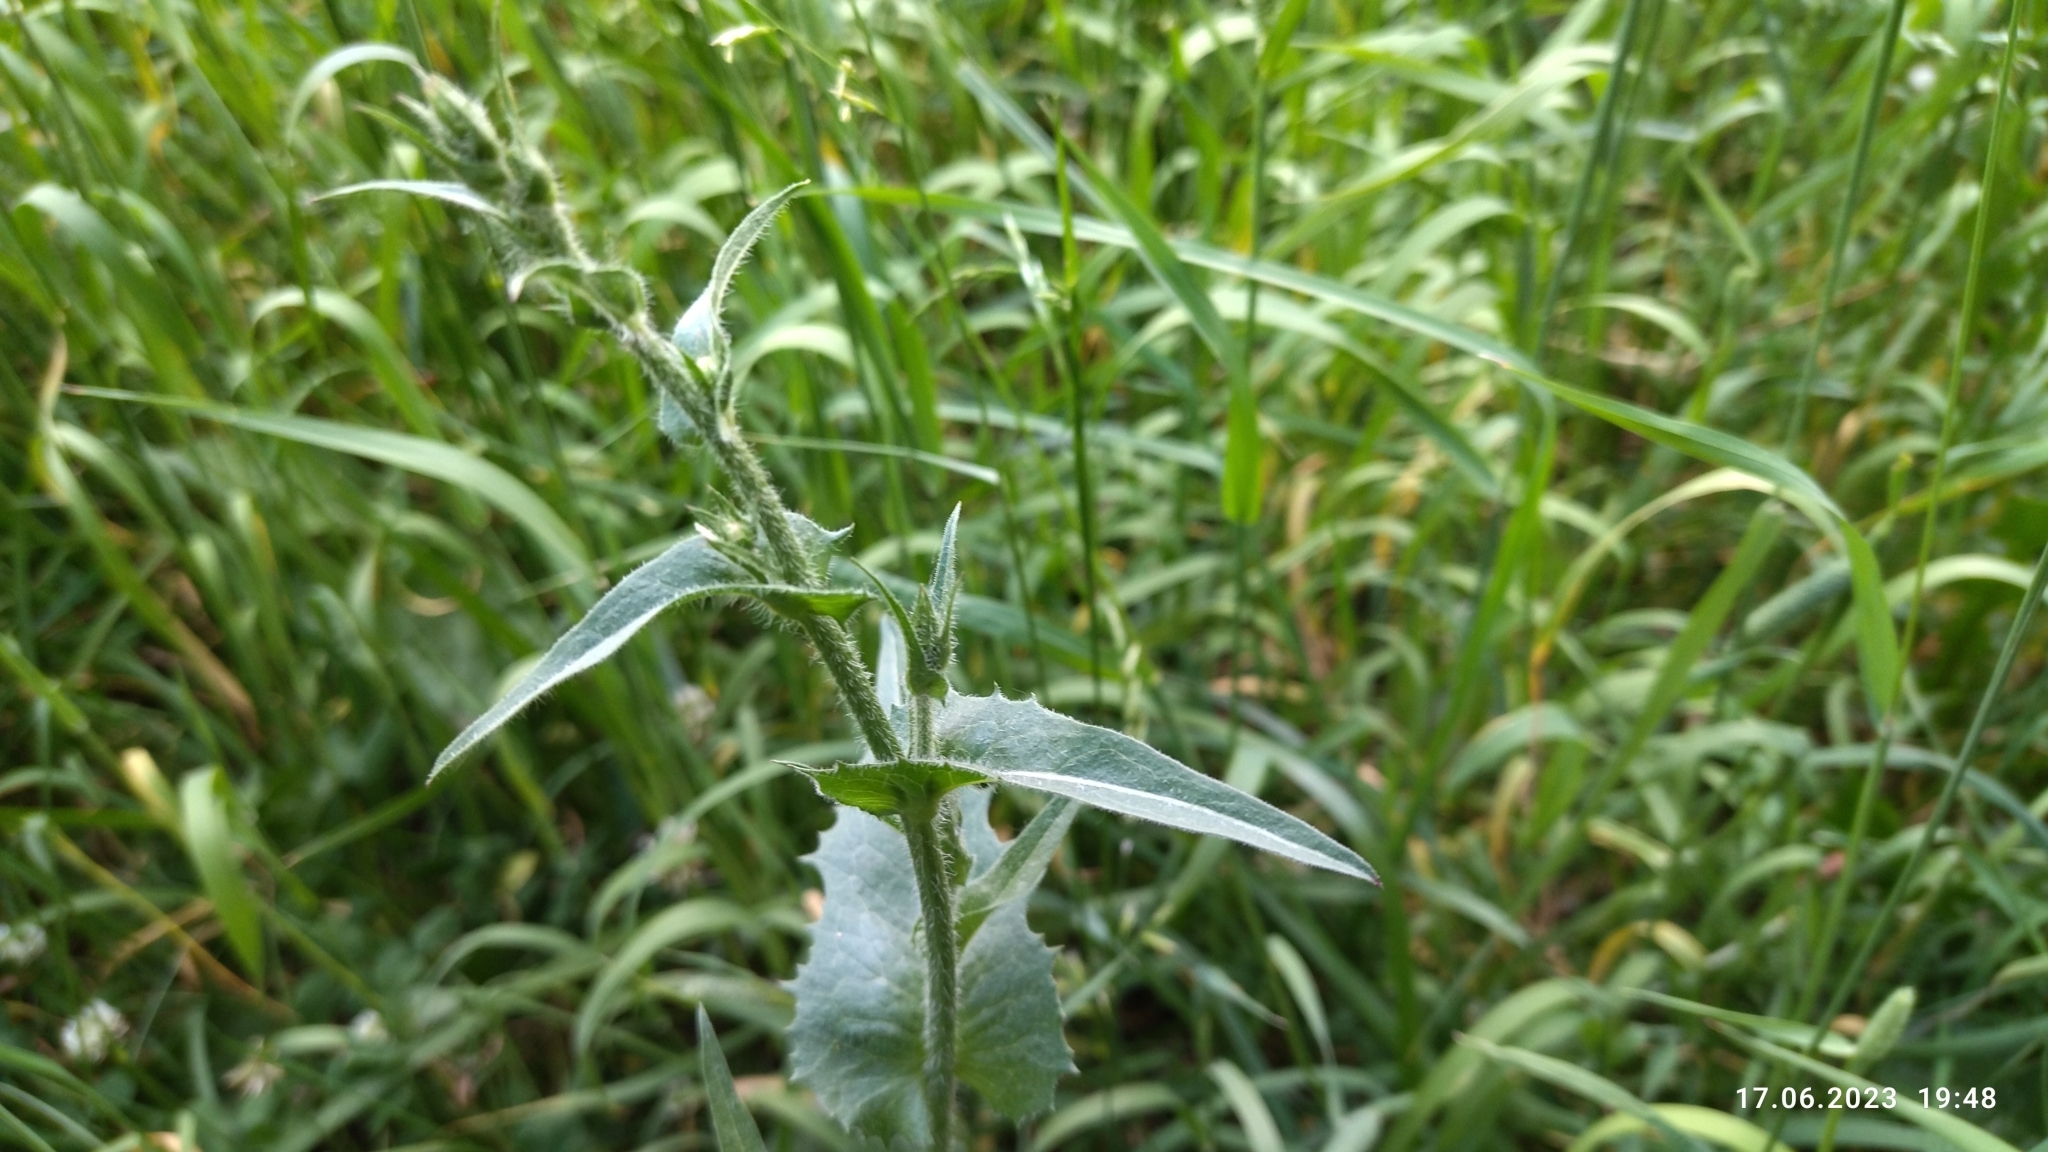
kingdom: Plantae
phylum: Tracheophyta
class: Magnoliopsida
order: Asterales
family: Asteraceae
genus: Cichorium
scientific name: Cichorium intybus
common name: Chicory
